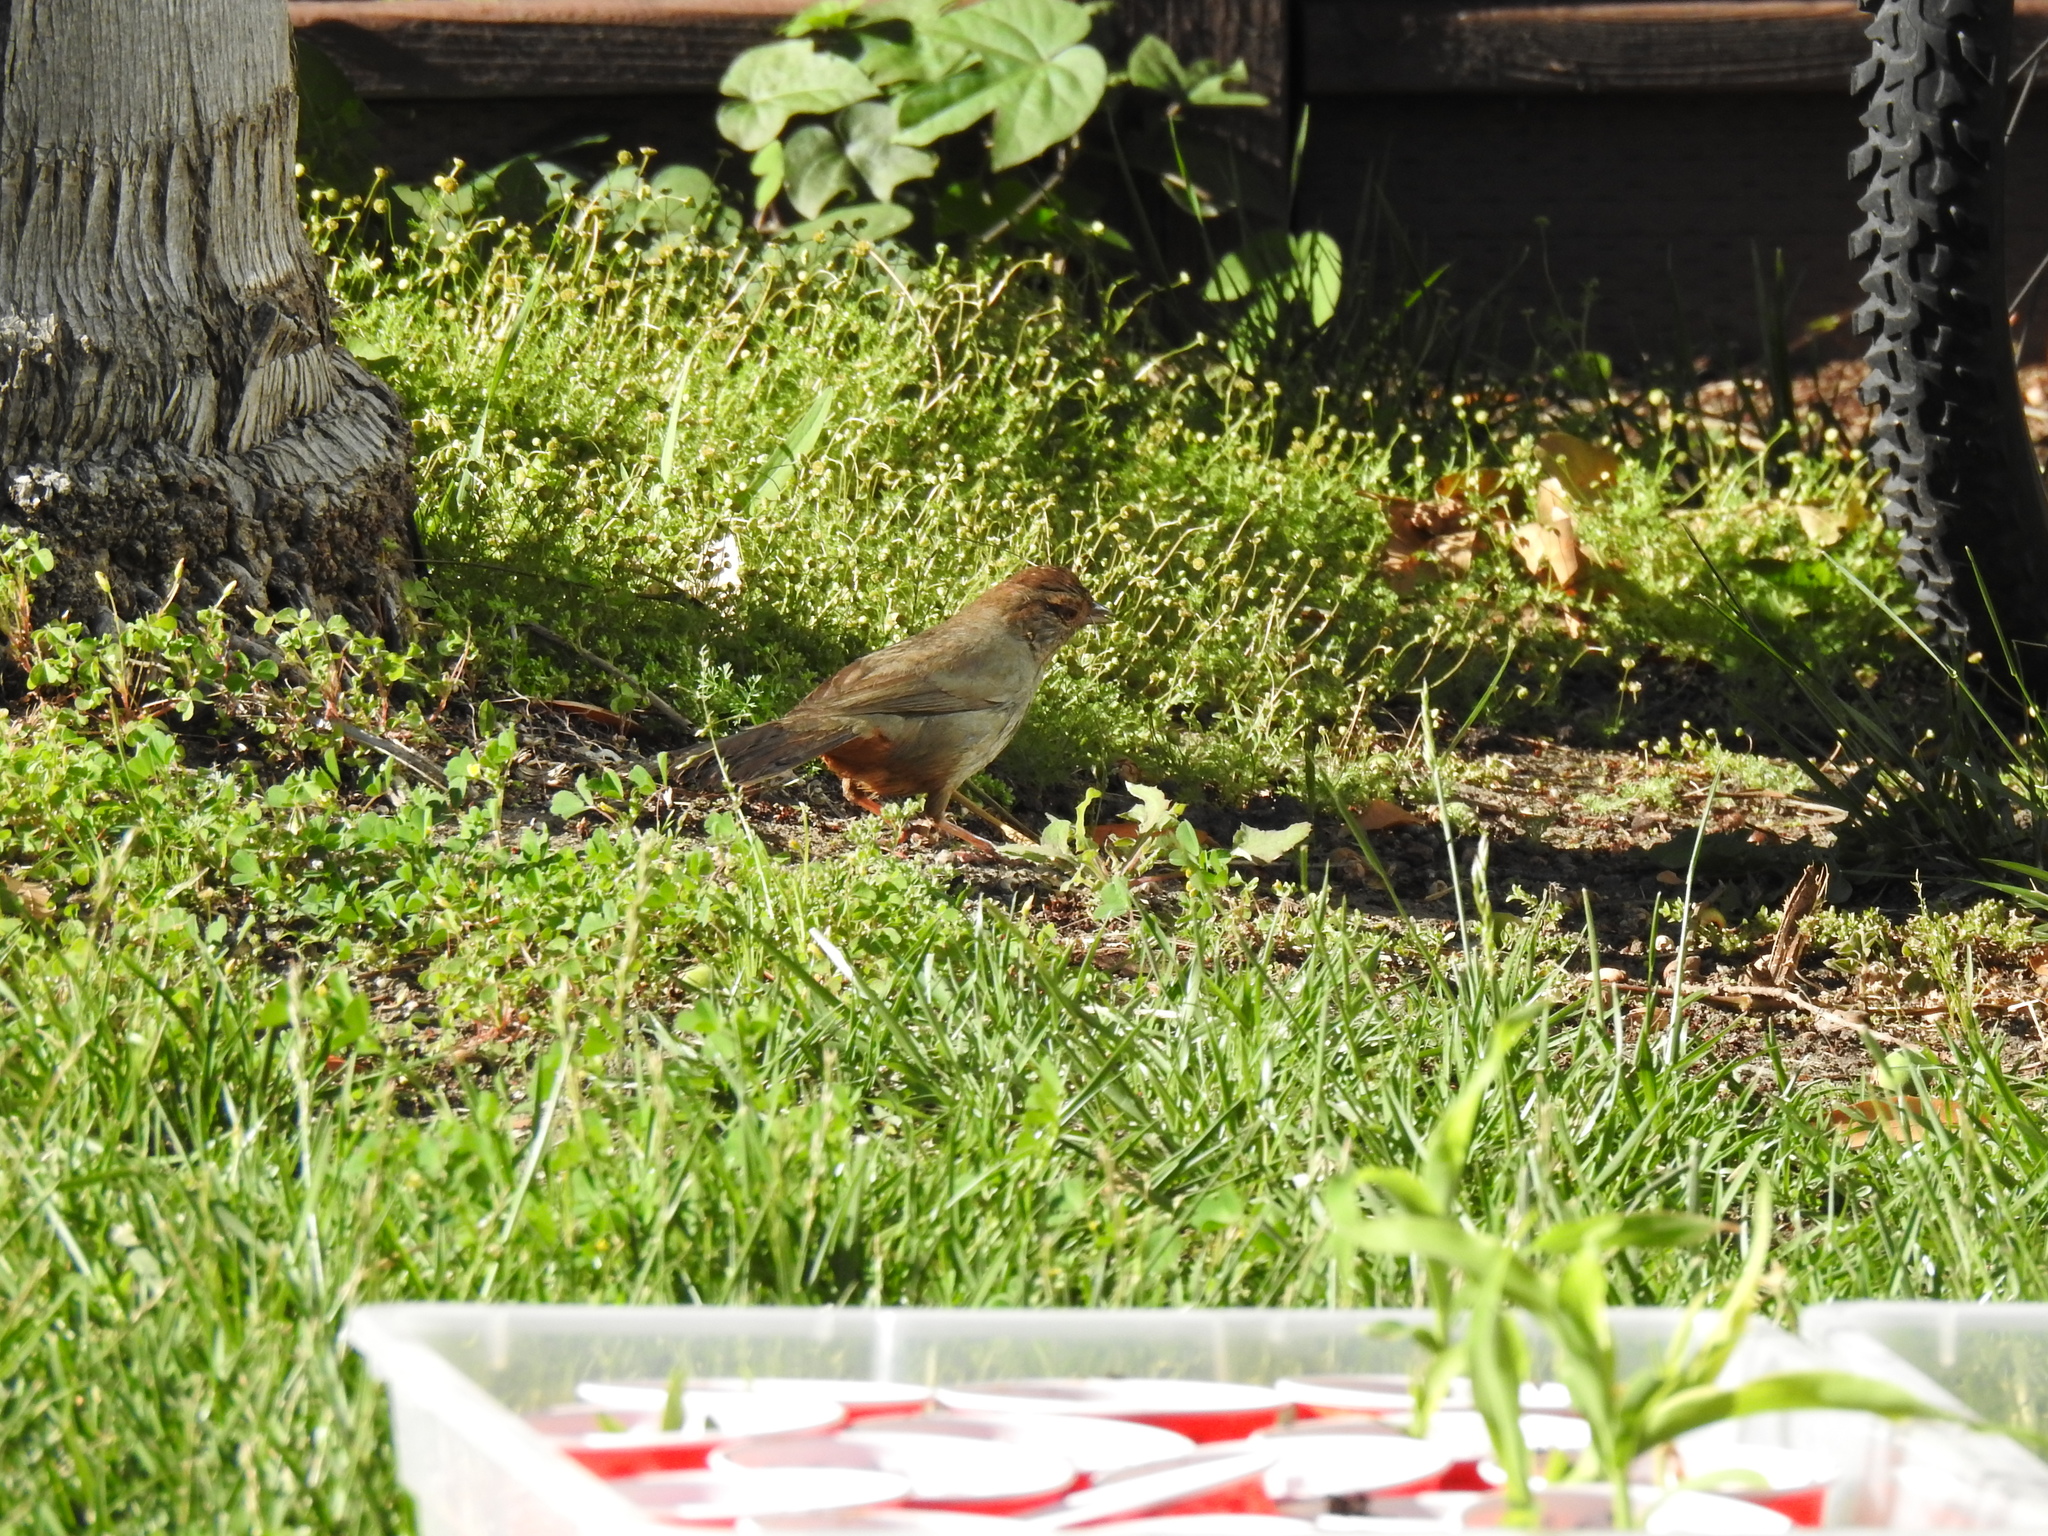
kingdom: Animalia
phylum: Chordata
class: Aves
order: Passeriformes
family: Passerellidae
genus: Melozone
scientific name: Melozone crissalis
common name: California towhee
